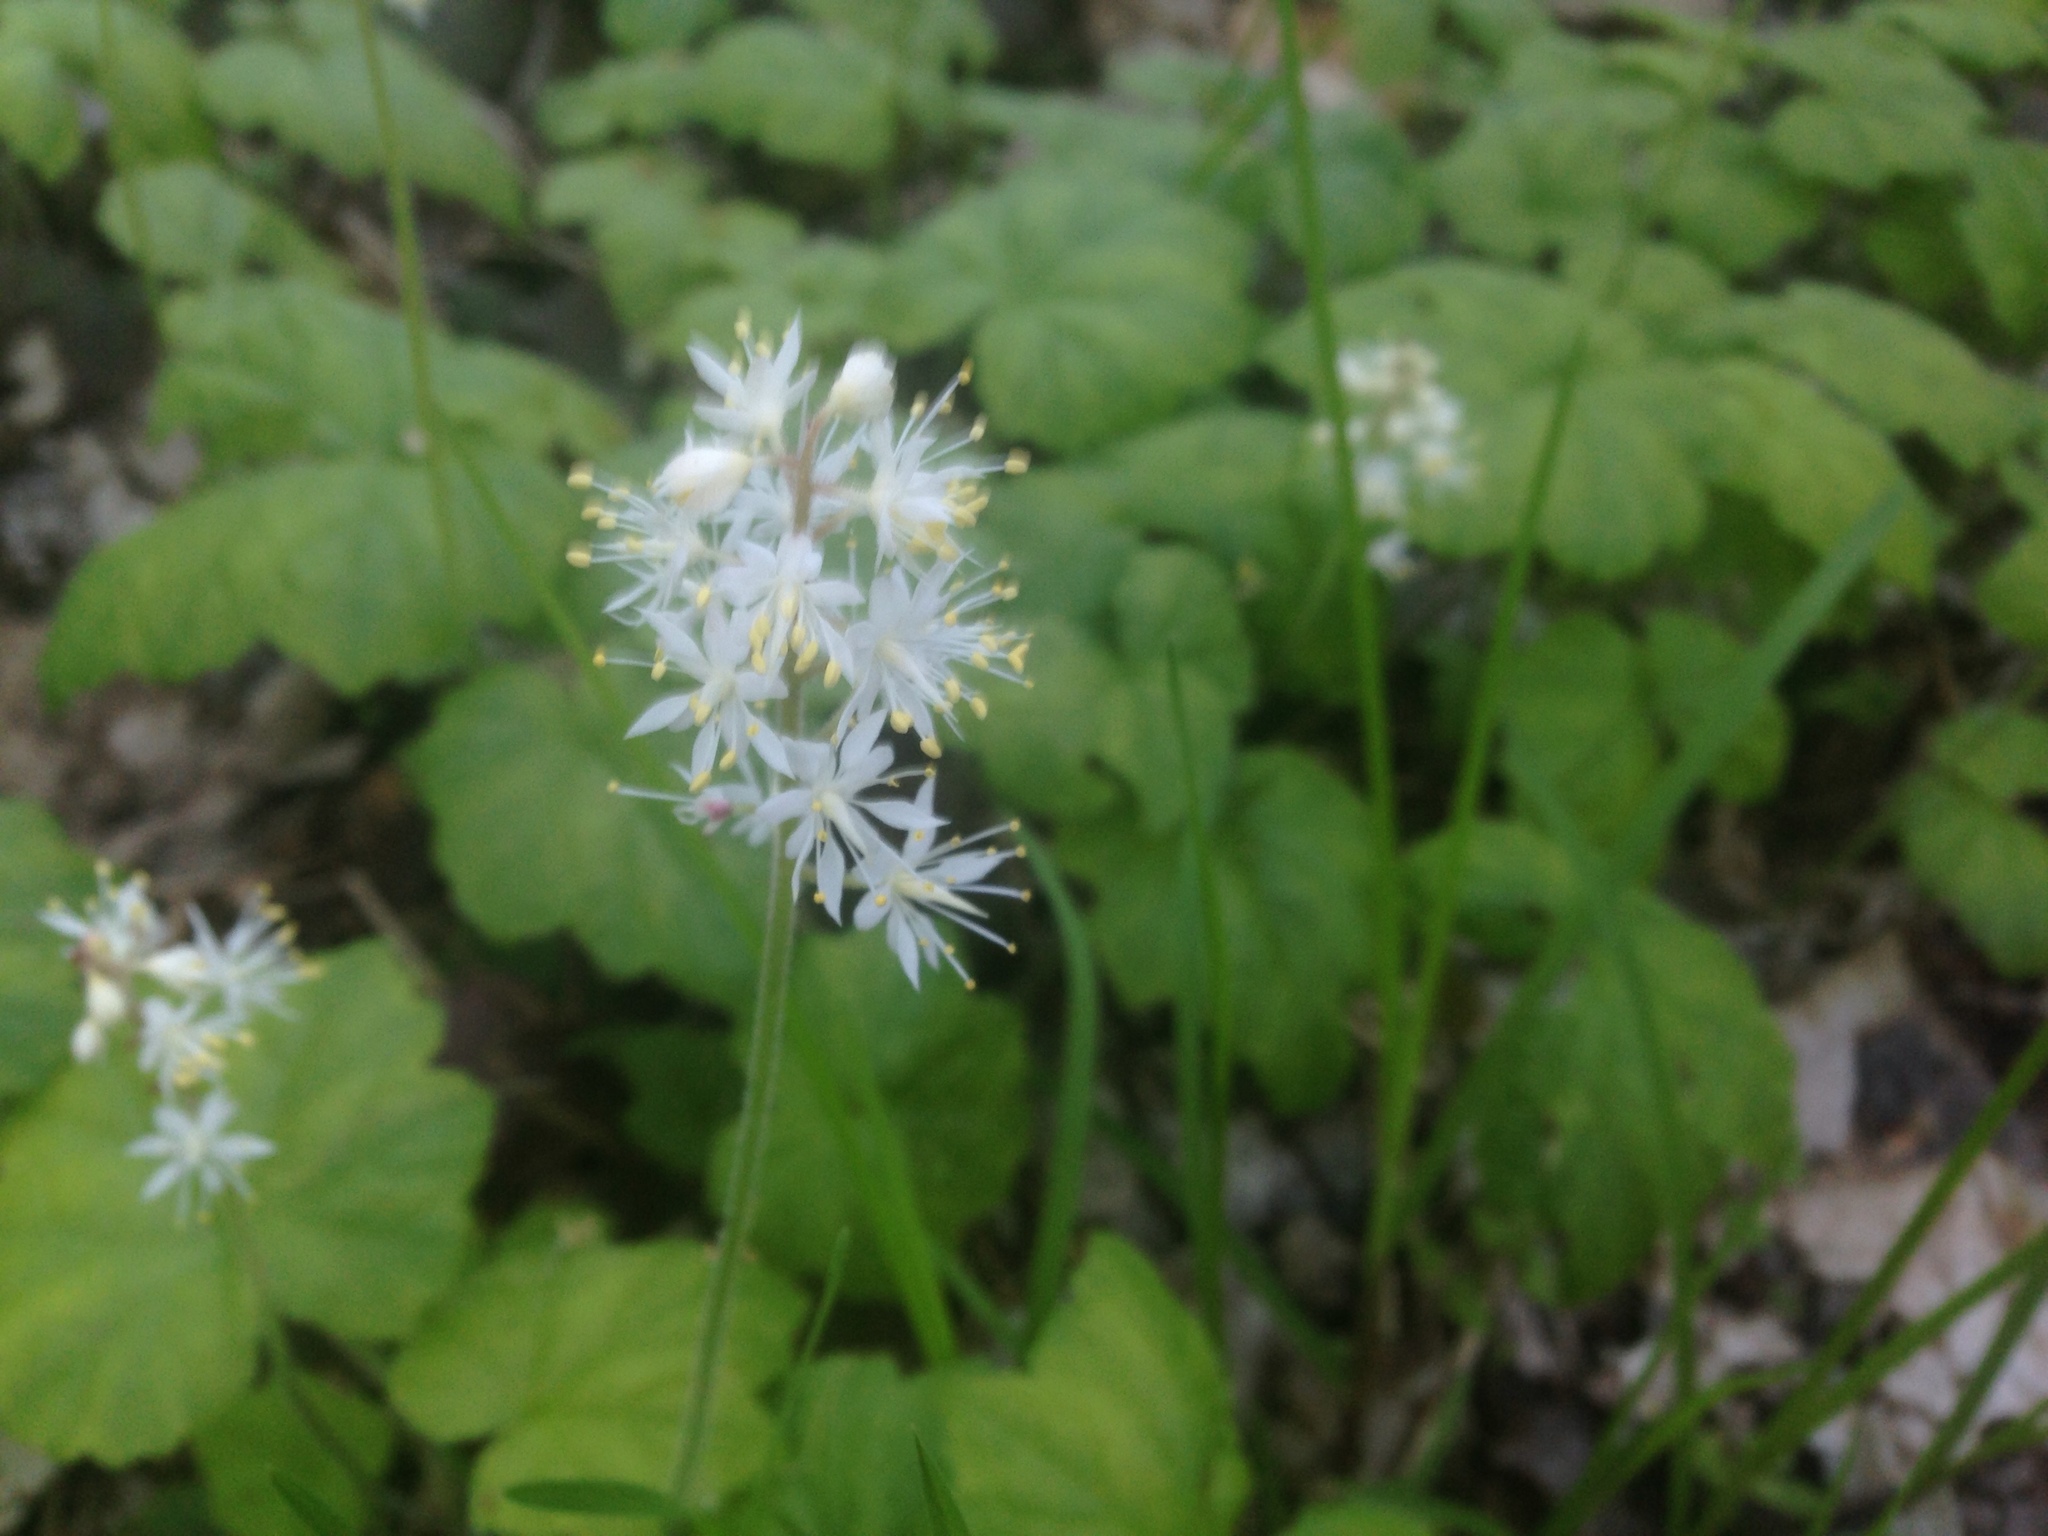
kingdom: Plantae
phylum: Tracheophyta
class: Magnoliopsida
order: Saxifragales
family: Saxifragaceae
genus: Tiarella
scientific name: Tiarella stolonifera
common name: Stoloniferous foamflower
